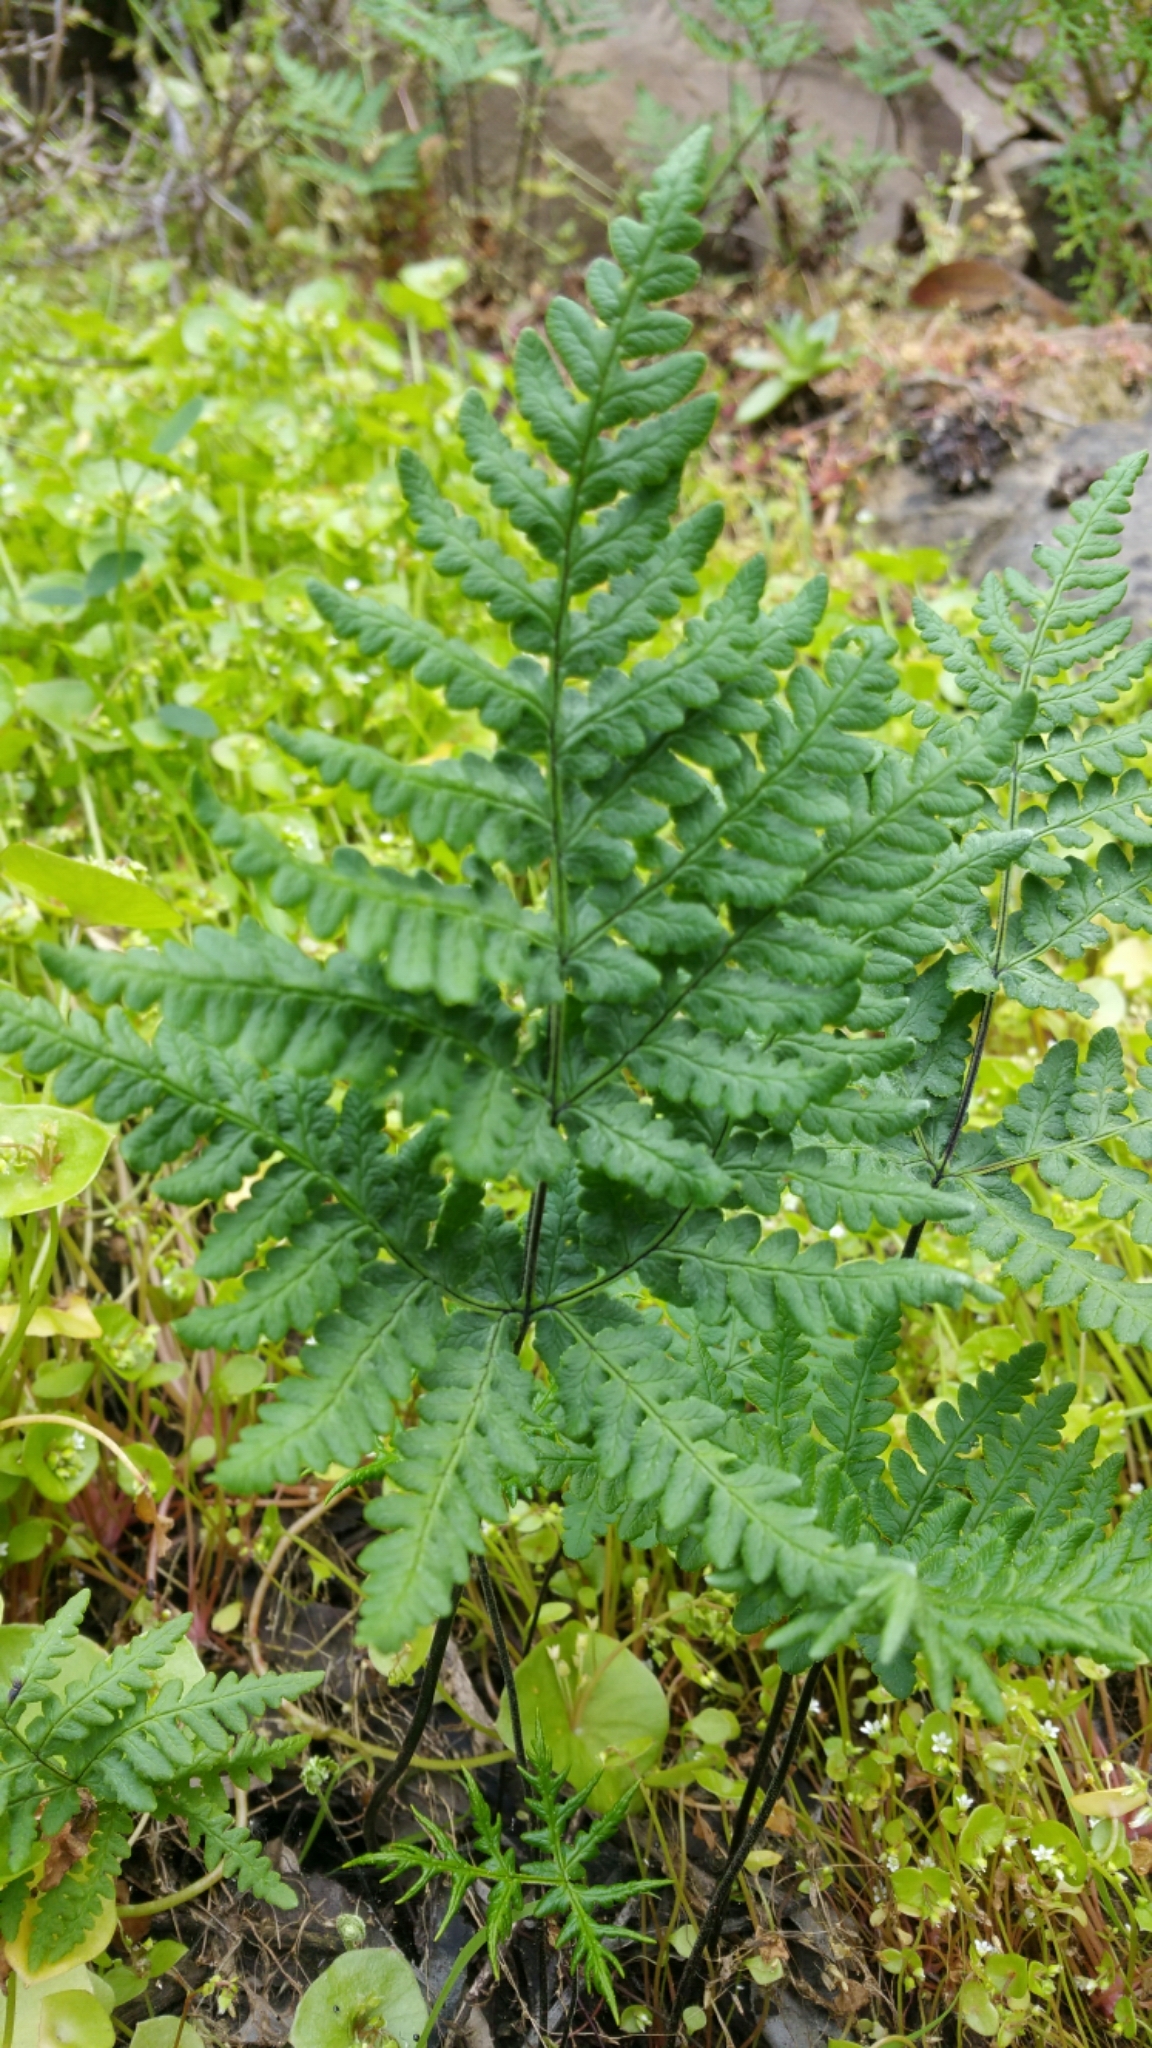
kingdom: Plantae
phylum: Tracheophyta
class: Polypodiopsida
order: Polypodiales
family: Pteridaceae
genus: Pentagramma
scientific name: Pentagramma triangularis
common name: Gold fern
